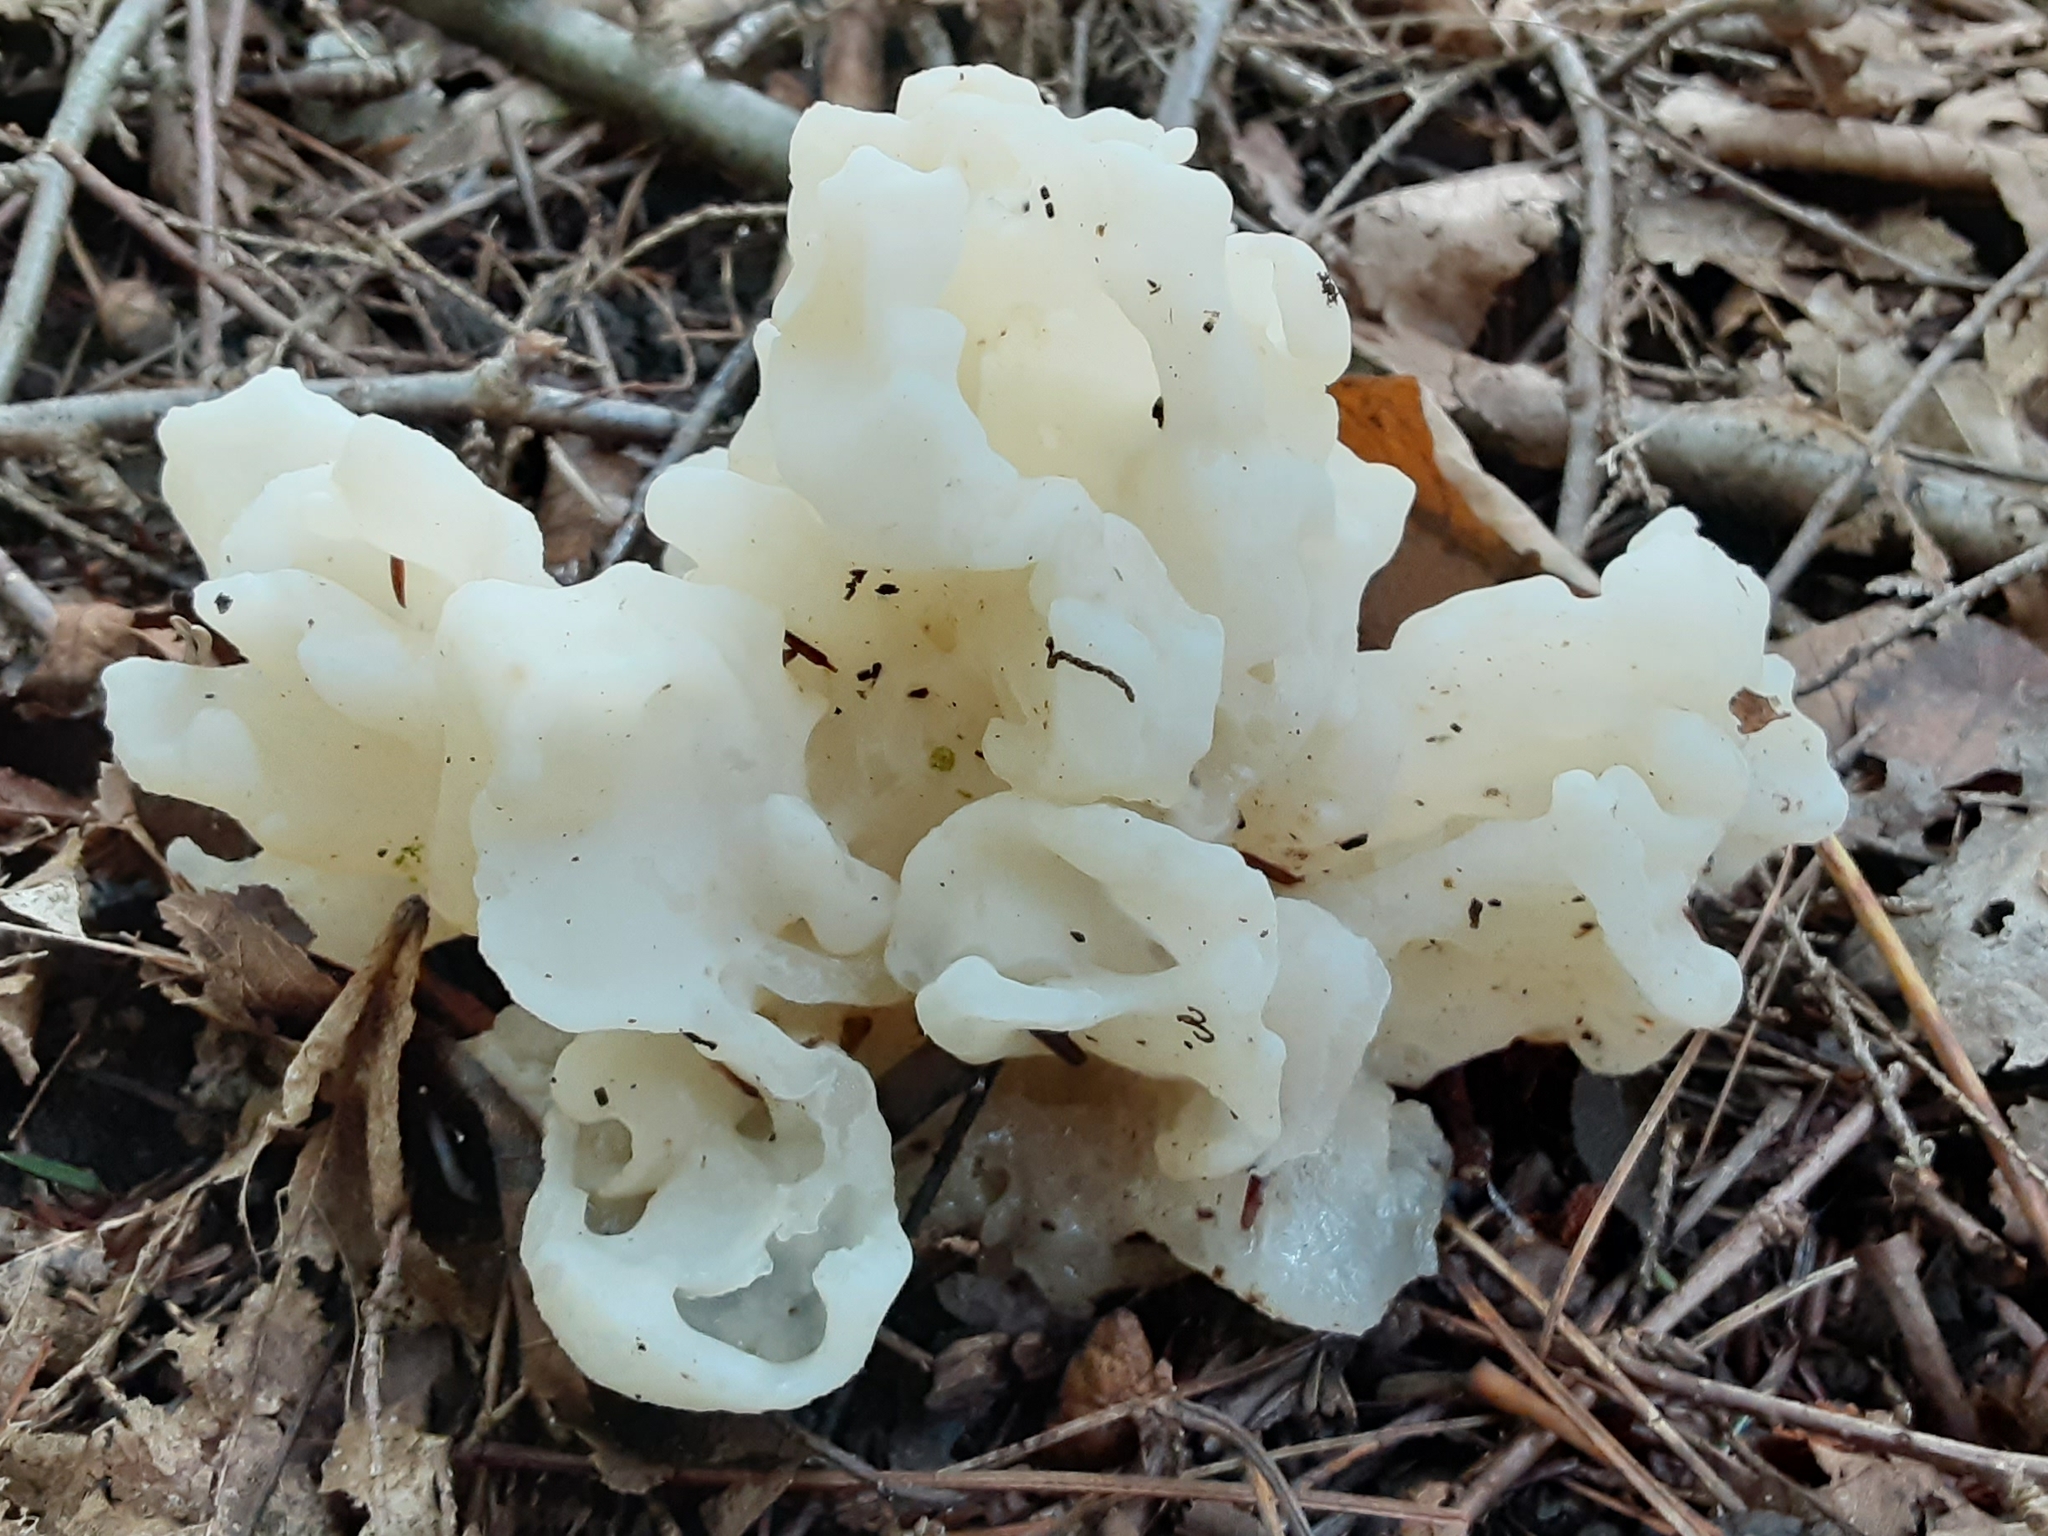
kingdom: Fungi
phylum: Basidiomycota
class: Agaricomycetes
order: Sebacinales
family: Sebacinaceae
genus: Sebacina
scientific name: Sebacina sparassoidea
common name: White coral jelly fungus
